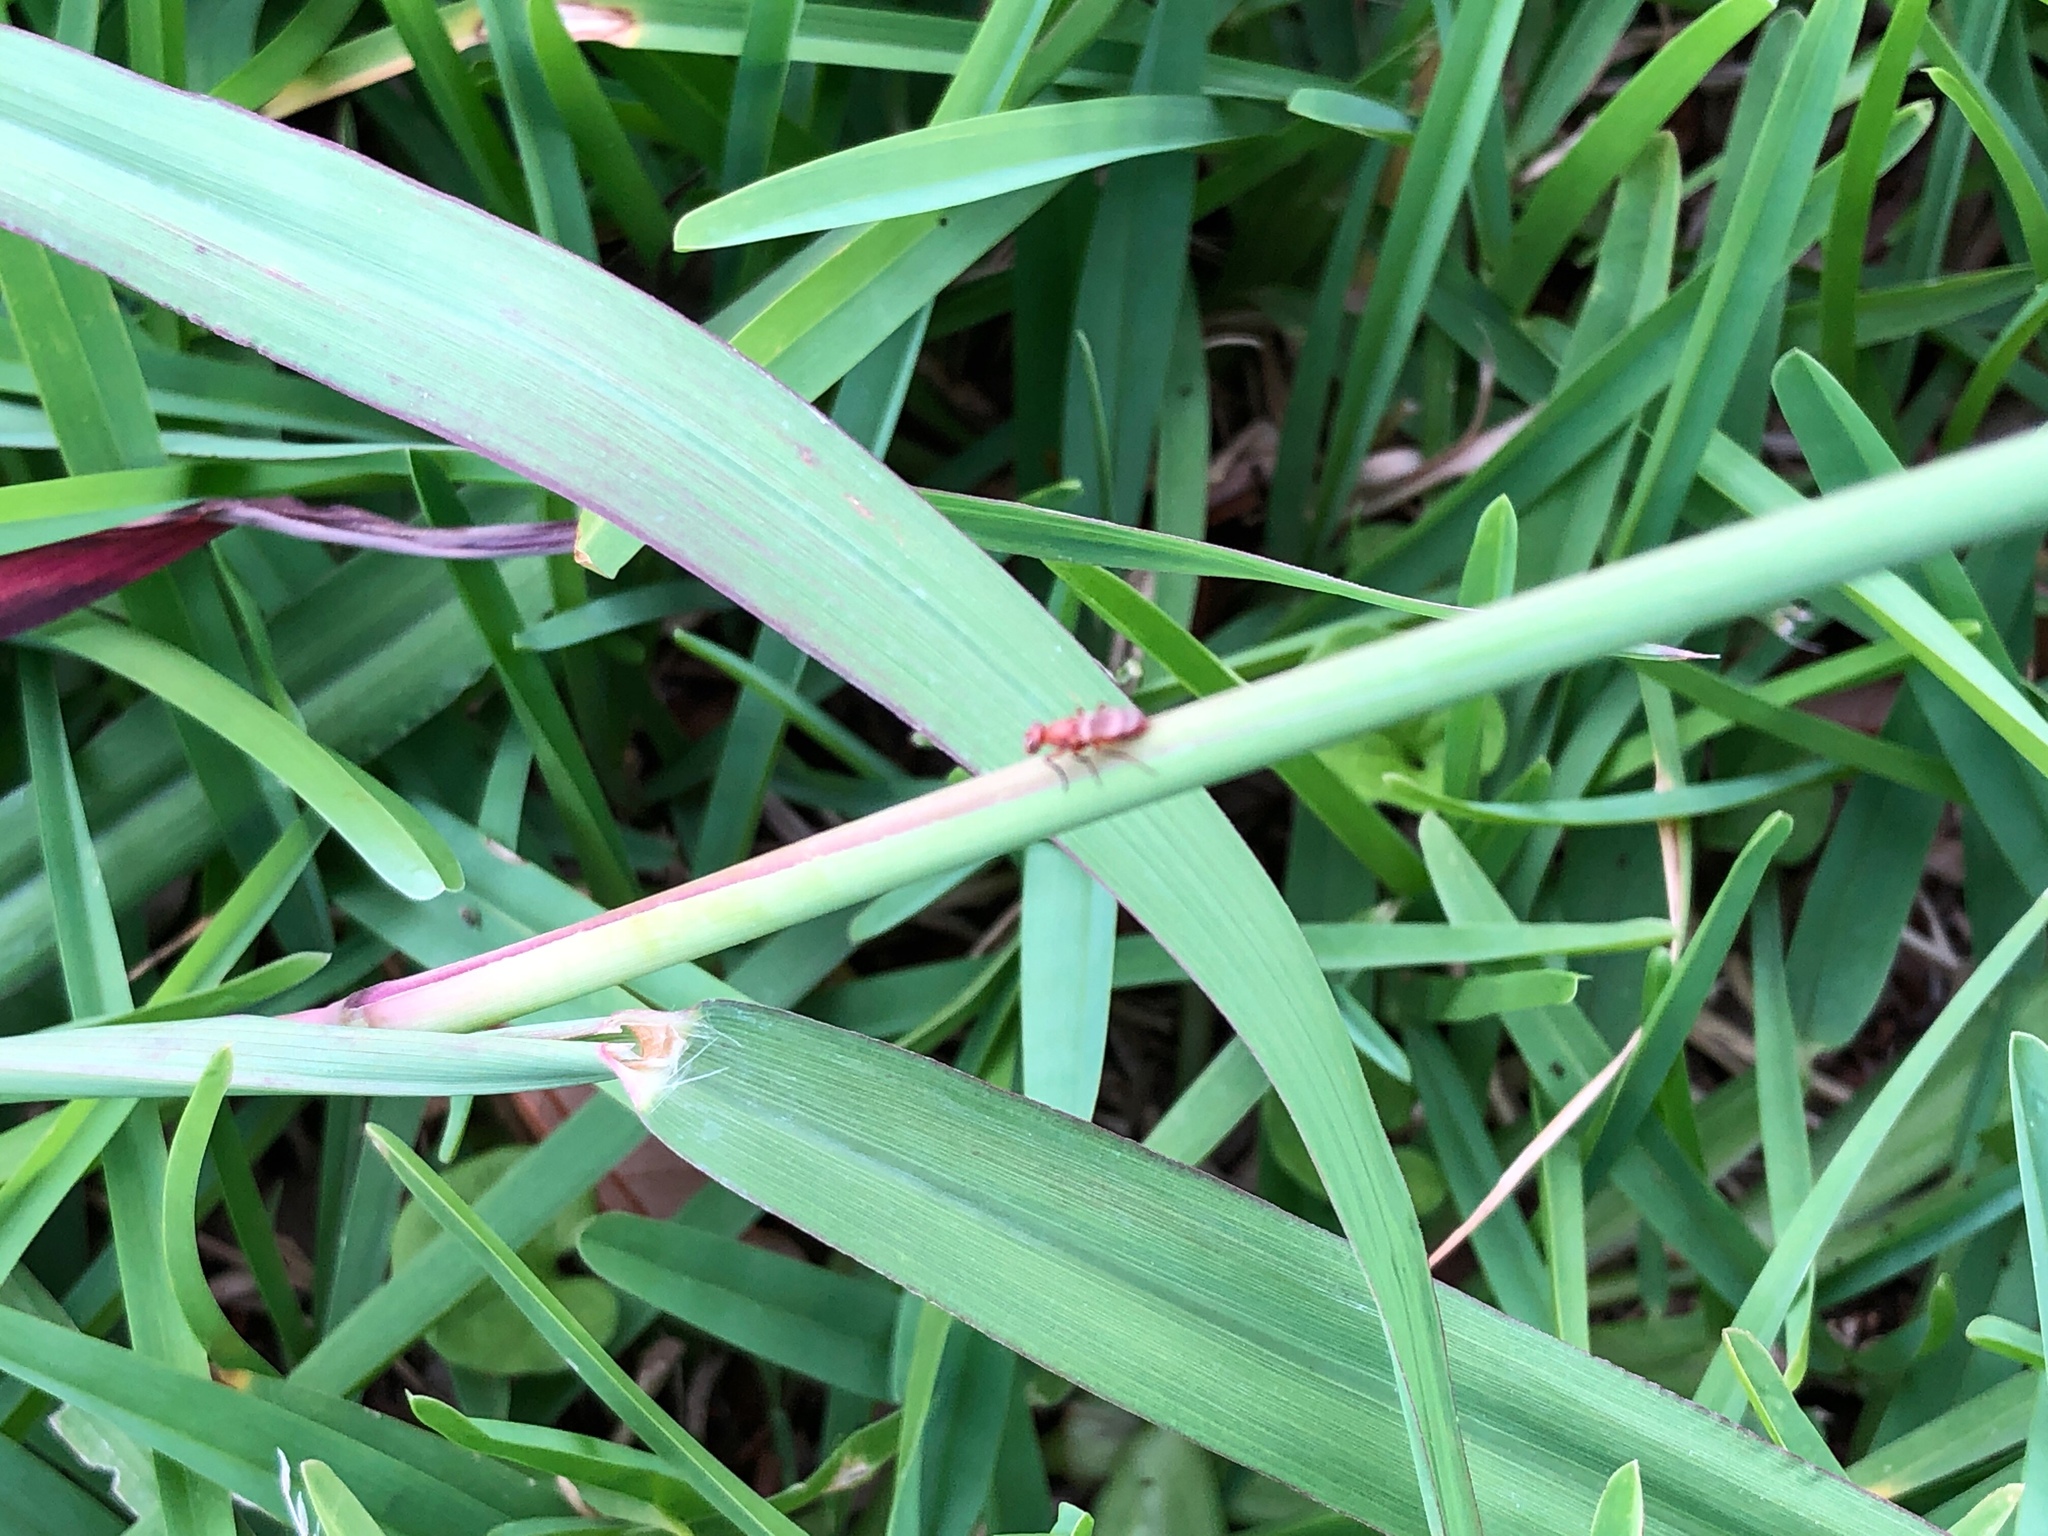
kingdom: Animalia
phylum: Arthropoda
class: Insecta
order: Diptera
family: Ulidiidae
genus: Zacompsia
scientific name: Zacompsia fulva
